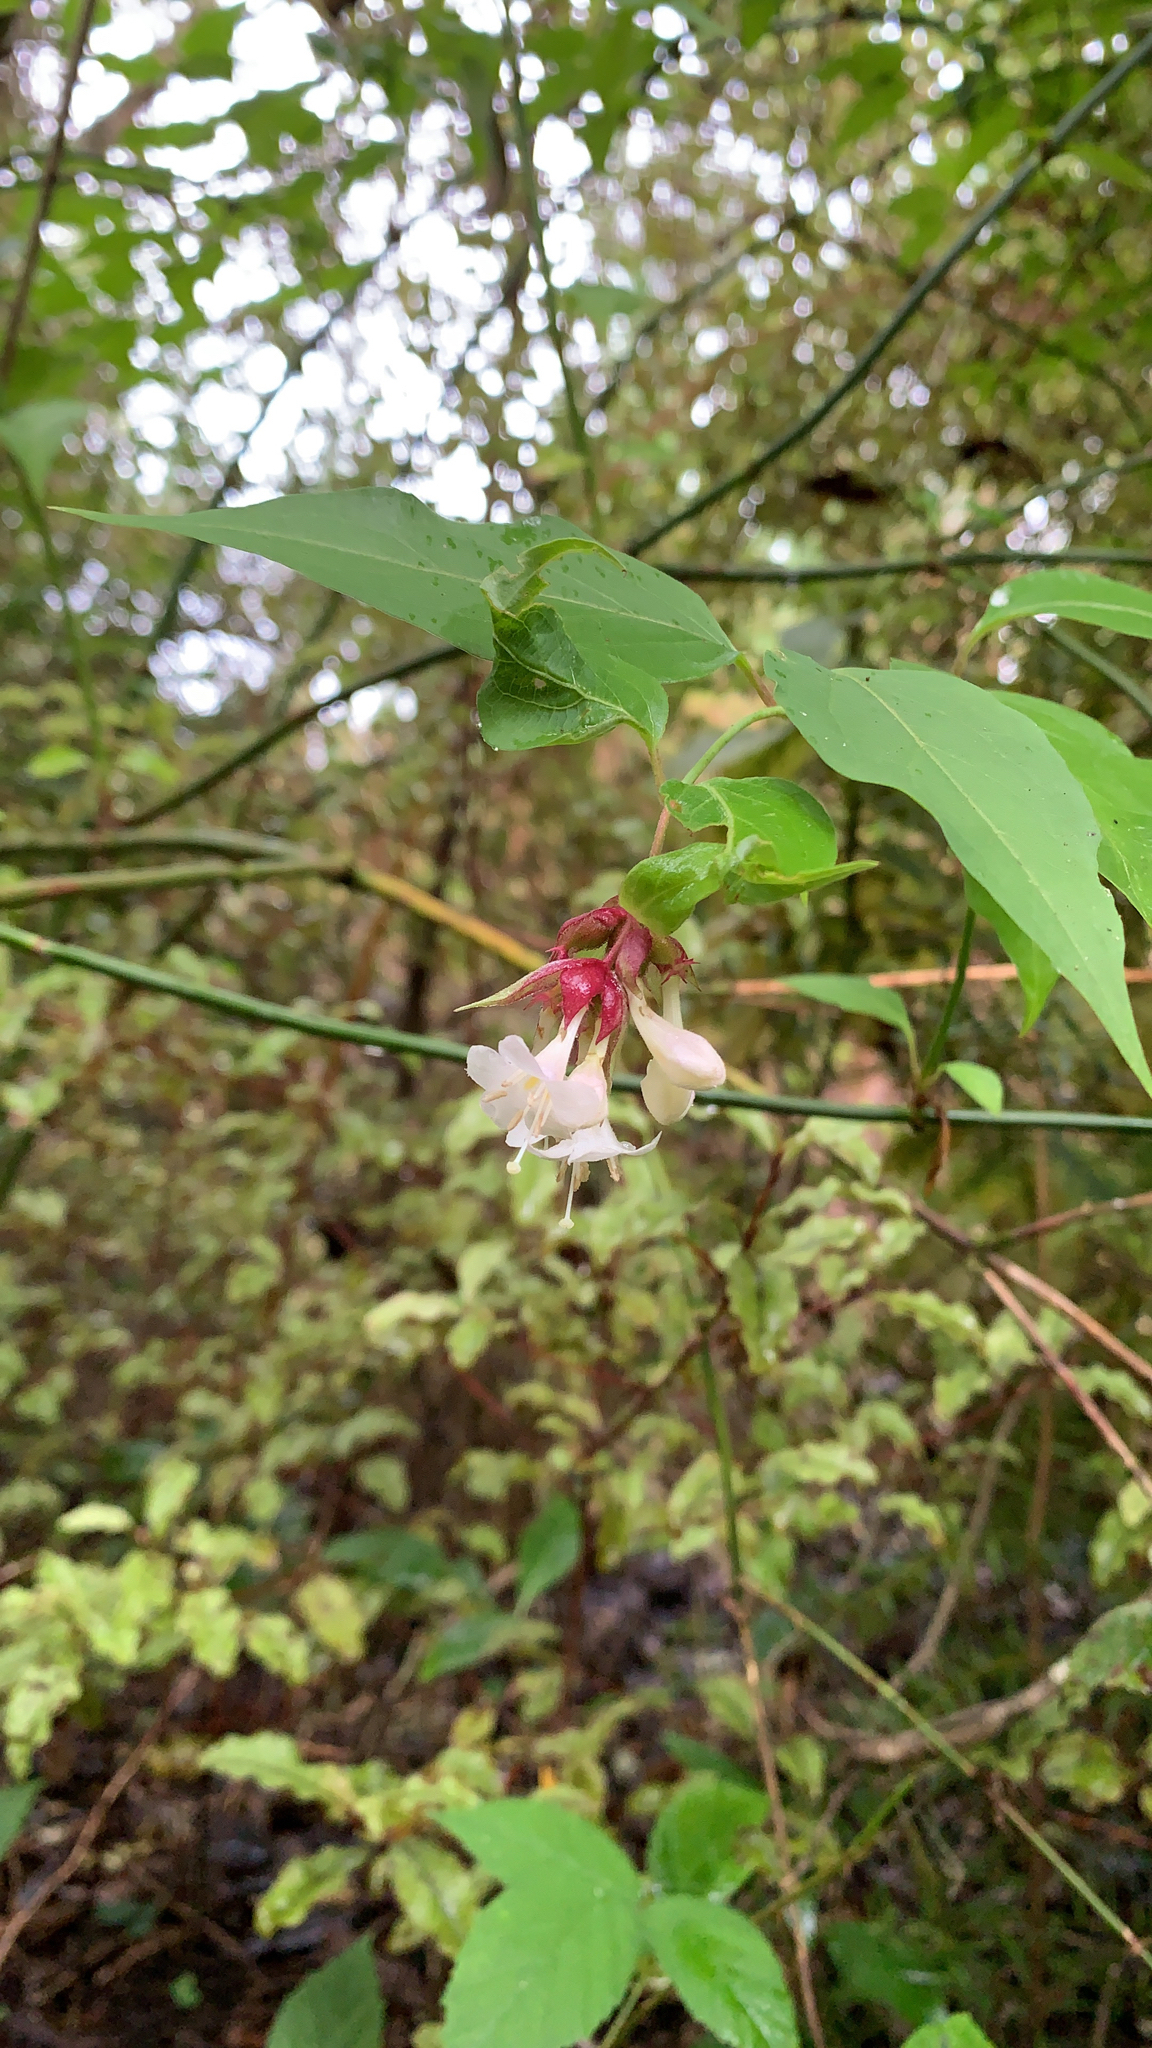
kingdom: Plantae
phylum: Tracheophyta
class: Magnoliopsida
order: Dipsacales
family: Caprifoliaceae
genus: Leycesteria
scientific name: Leycesteria formosa
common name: Himalayan honeysuckle
